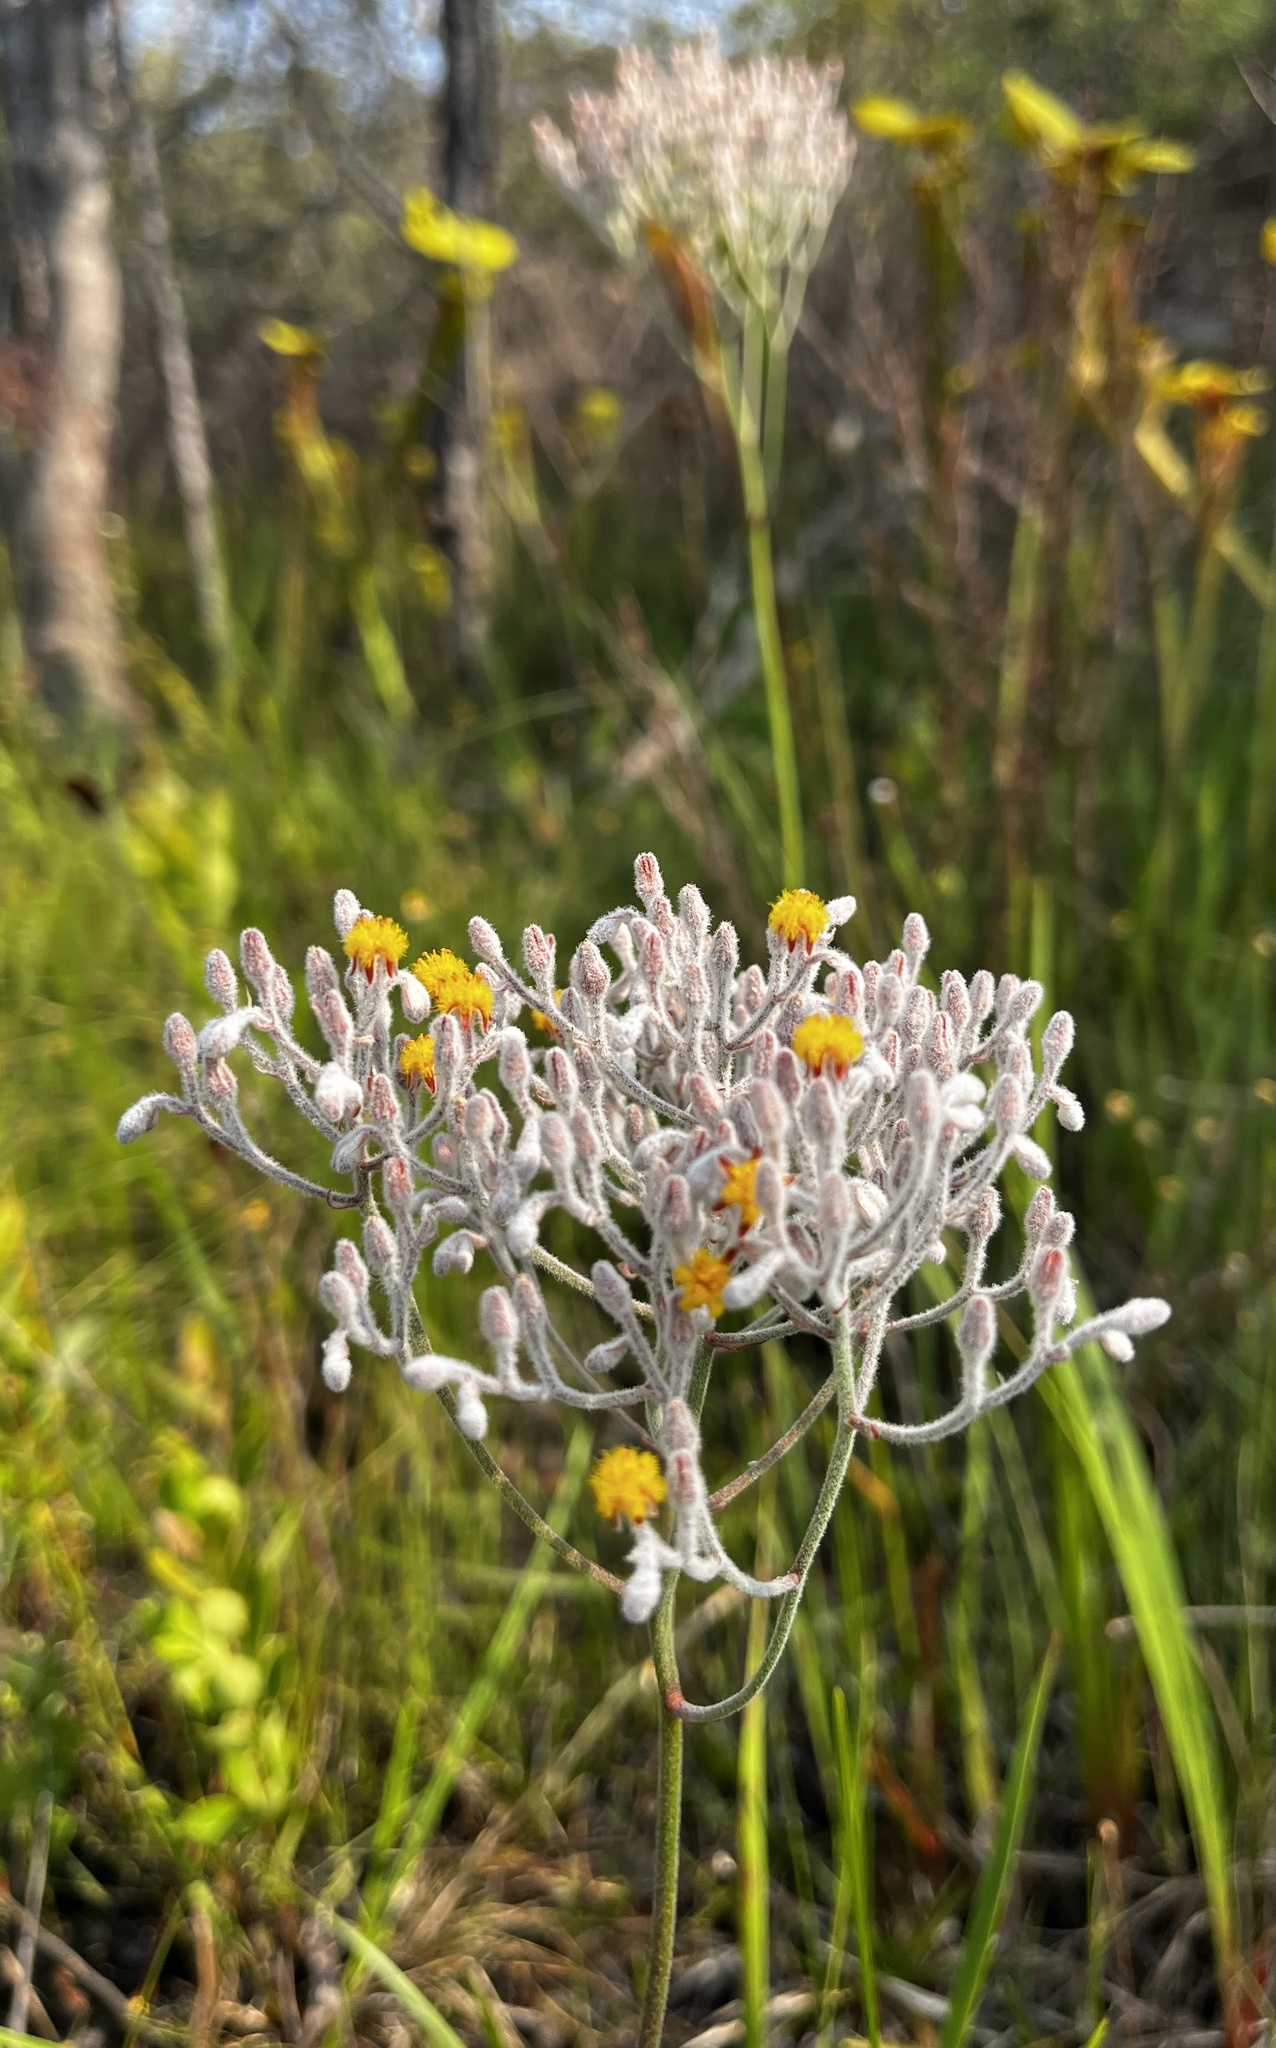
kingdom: Plantae
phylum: Tracheophyta
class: Liliopsida
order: Dioscoreales
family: Nartheciaceae
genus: Lophiola
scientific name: Lophiola aurea
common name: Golden-crest
